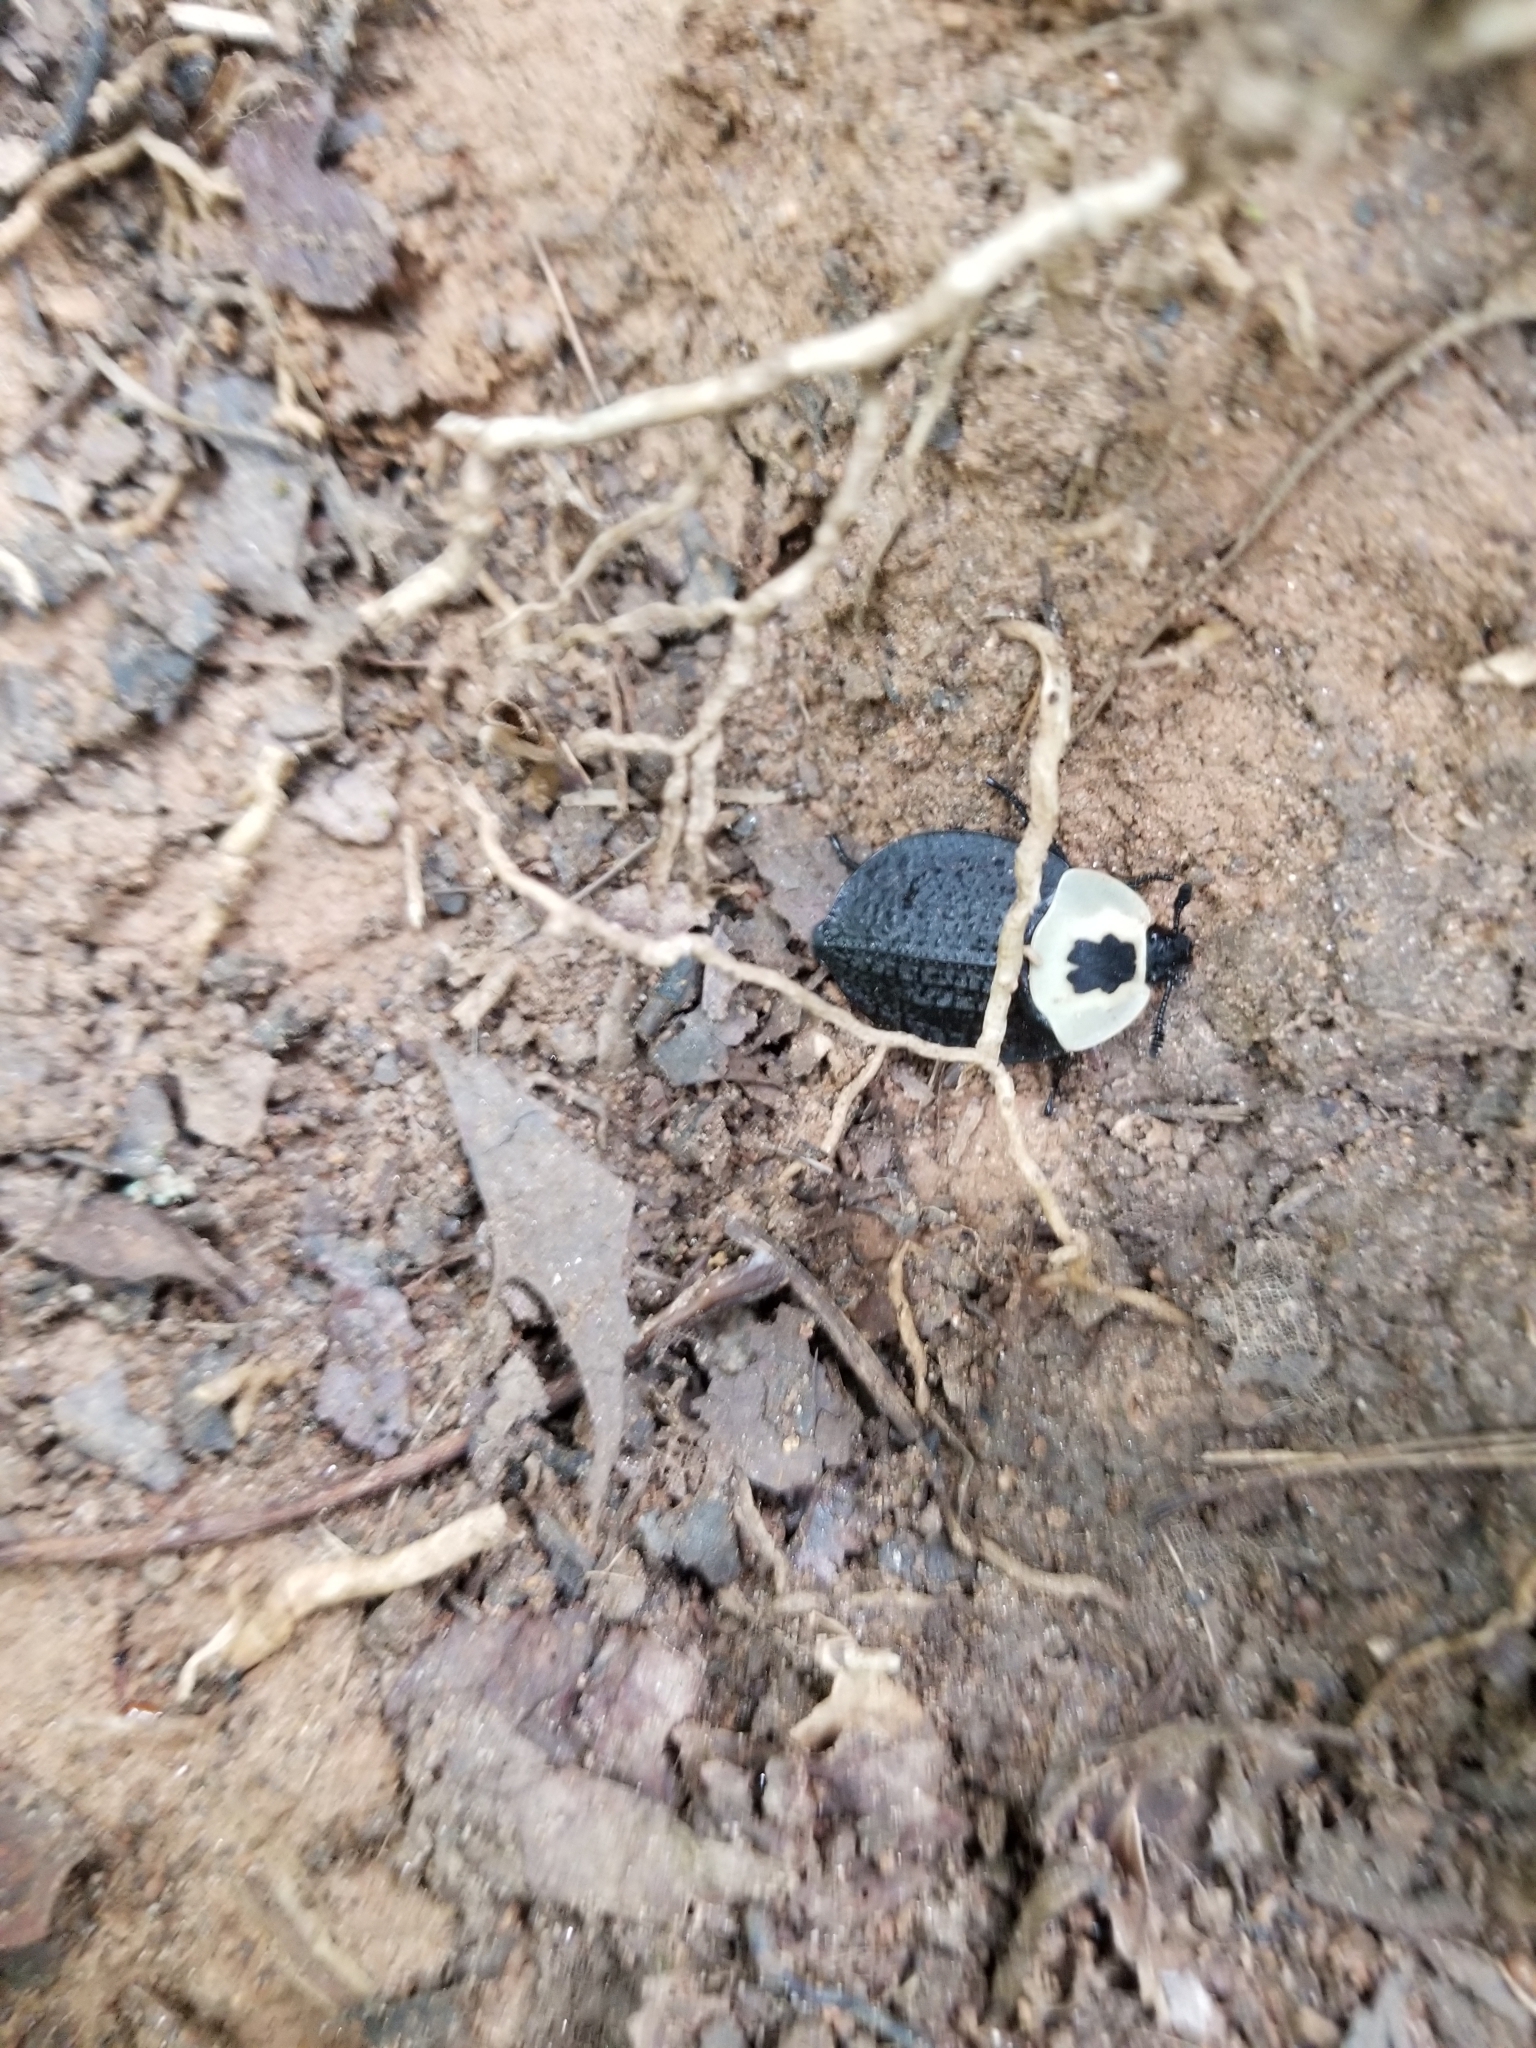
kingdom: Animalia
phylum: Arthropoda
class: Insecta
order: Coleoptera
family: Staphylinidae
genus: Necrophila
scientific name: Necrophila americana
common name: American carrion beetle
